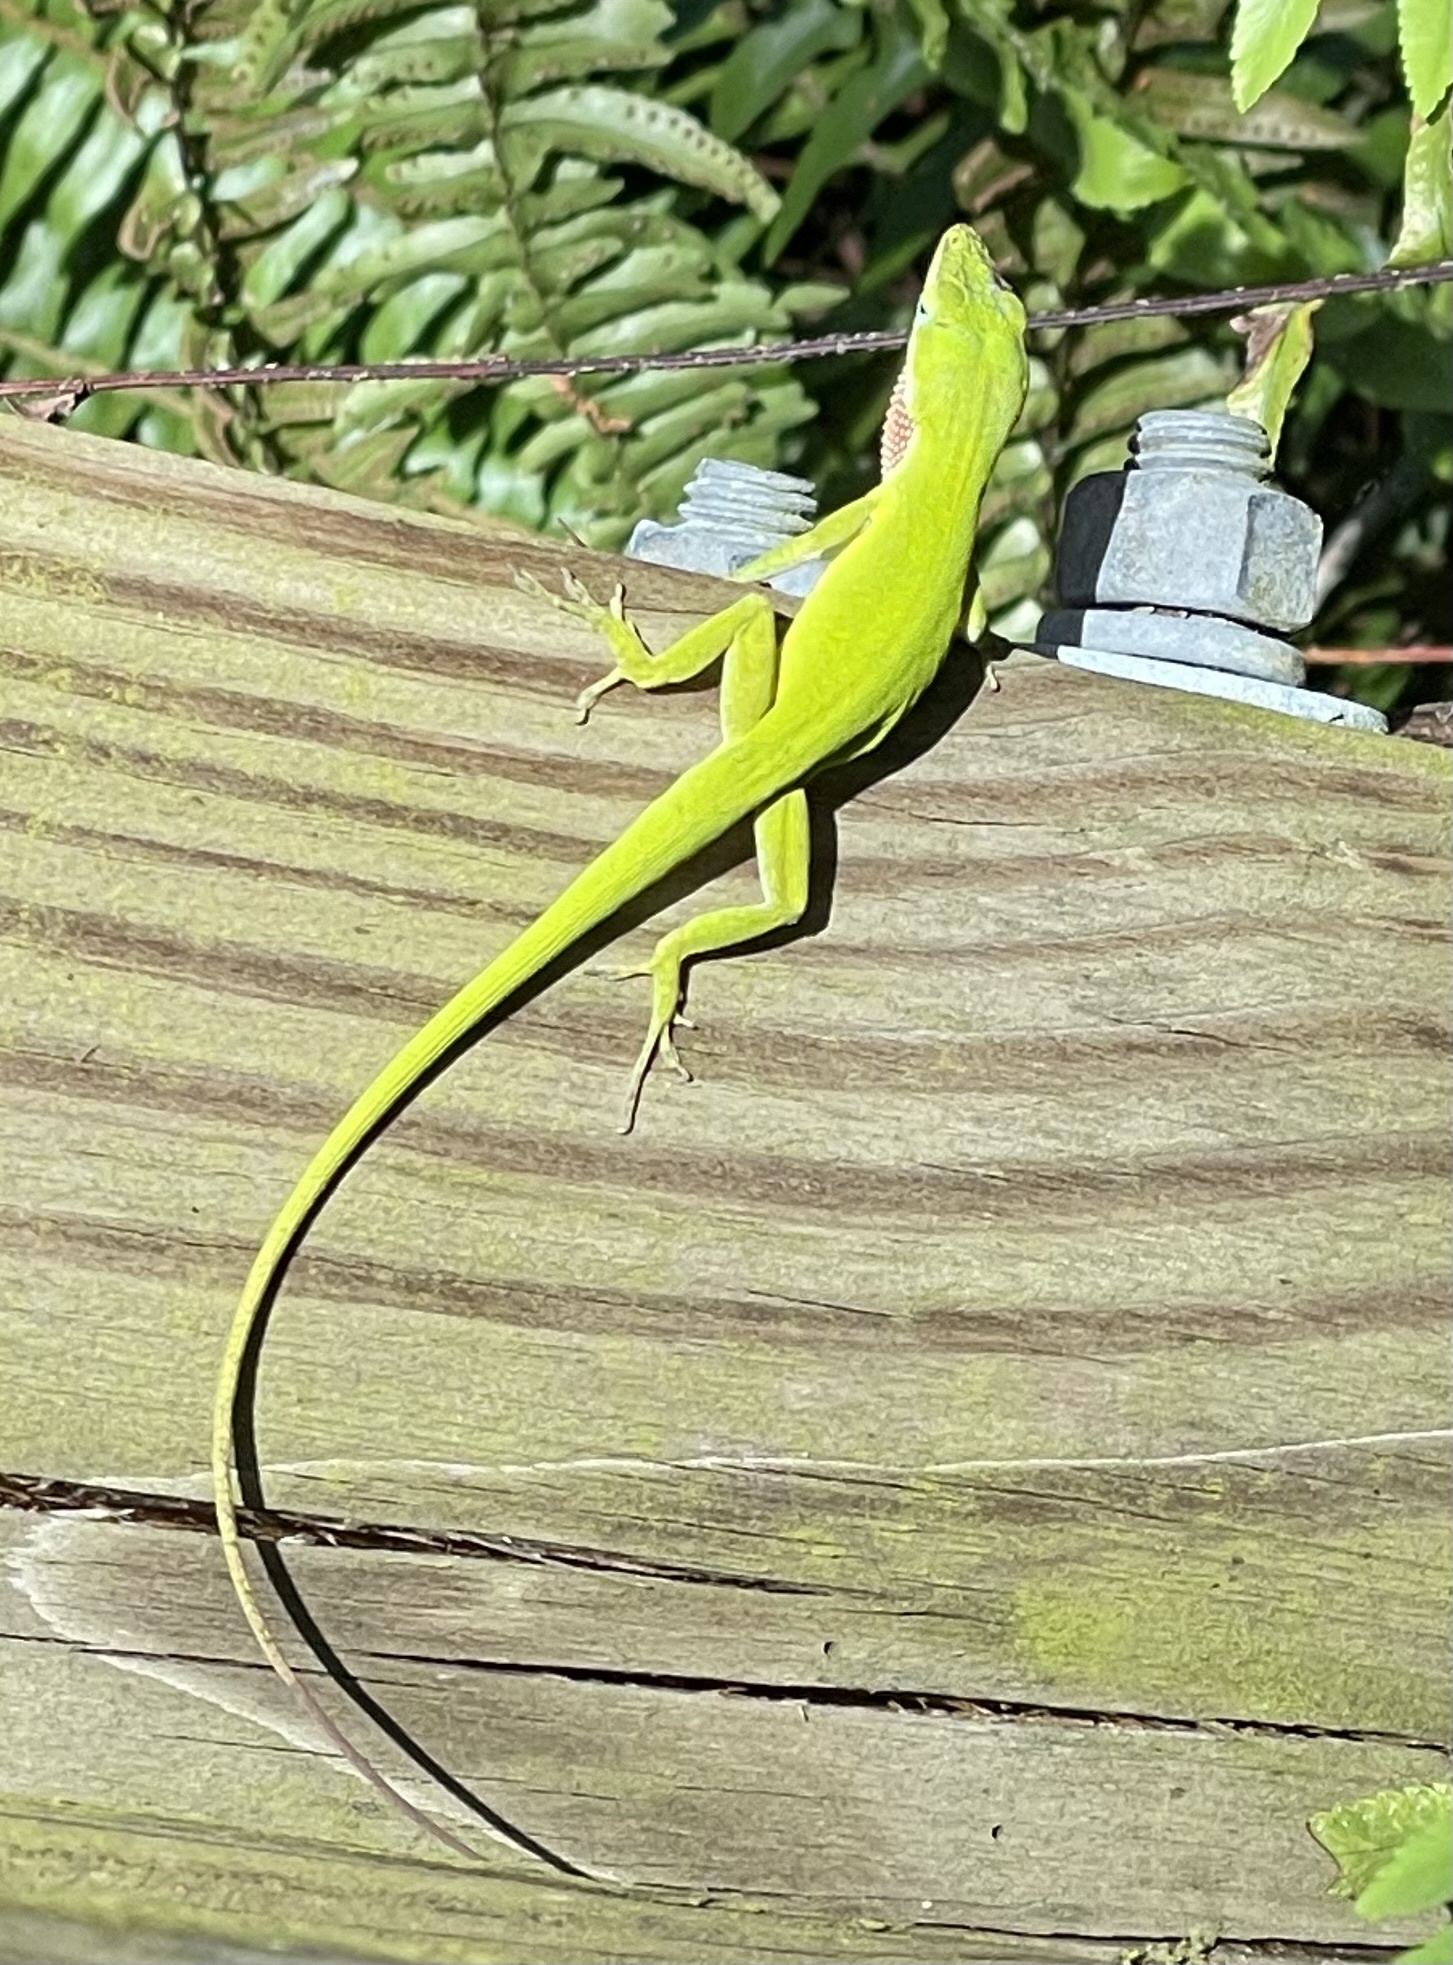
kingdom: Animalia
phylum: Chordata
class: Squamata
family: Dactyloidae
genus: Anolis
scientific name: Anolis carolinensis
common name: Green anole
